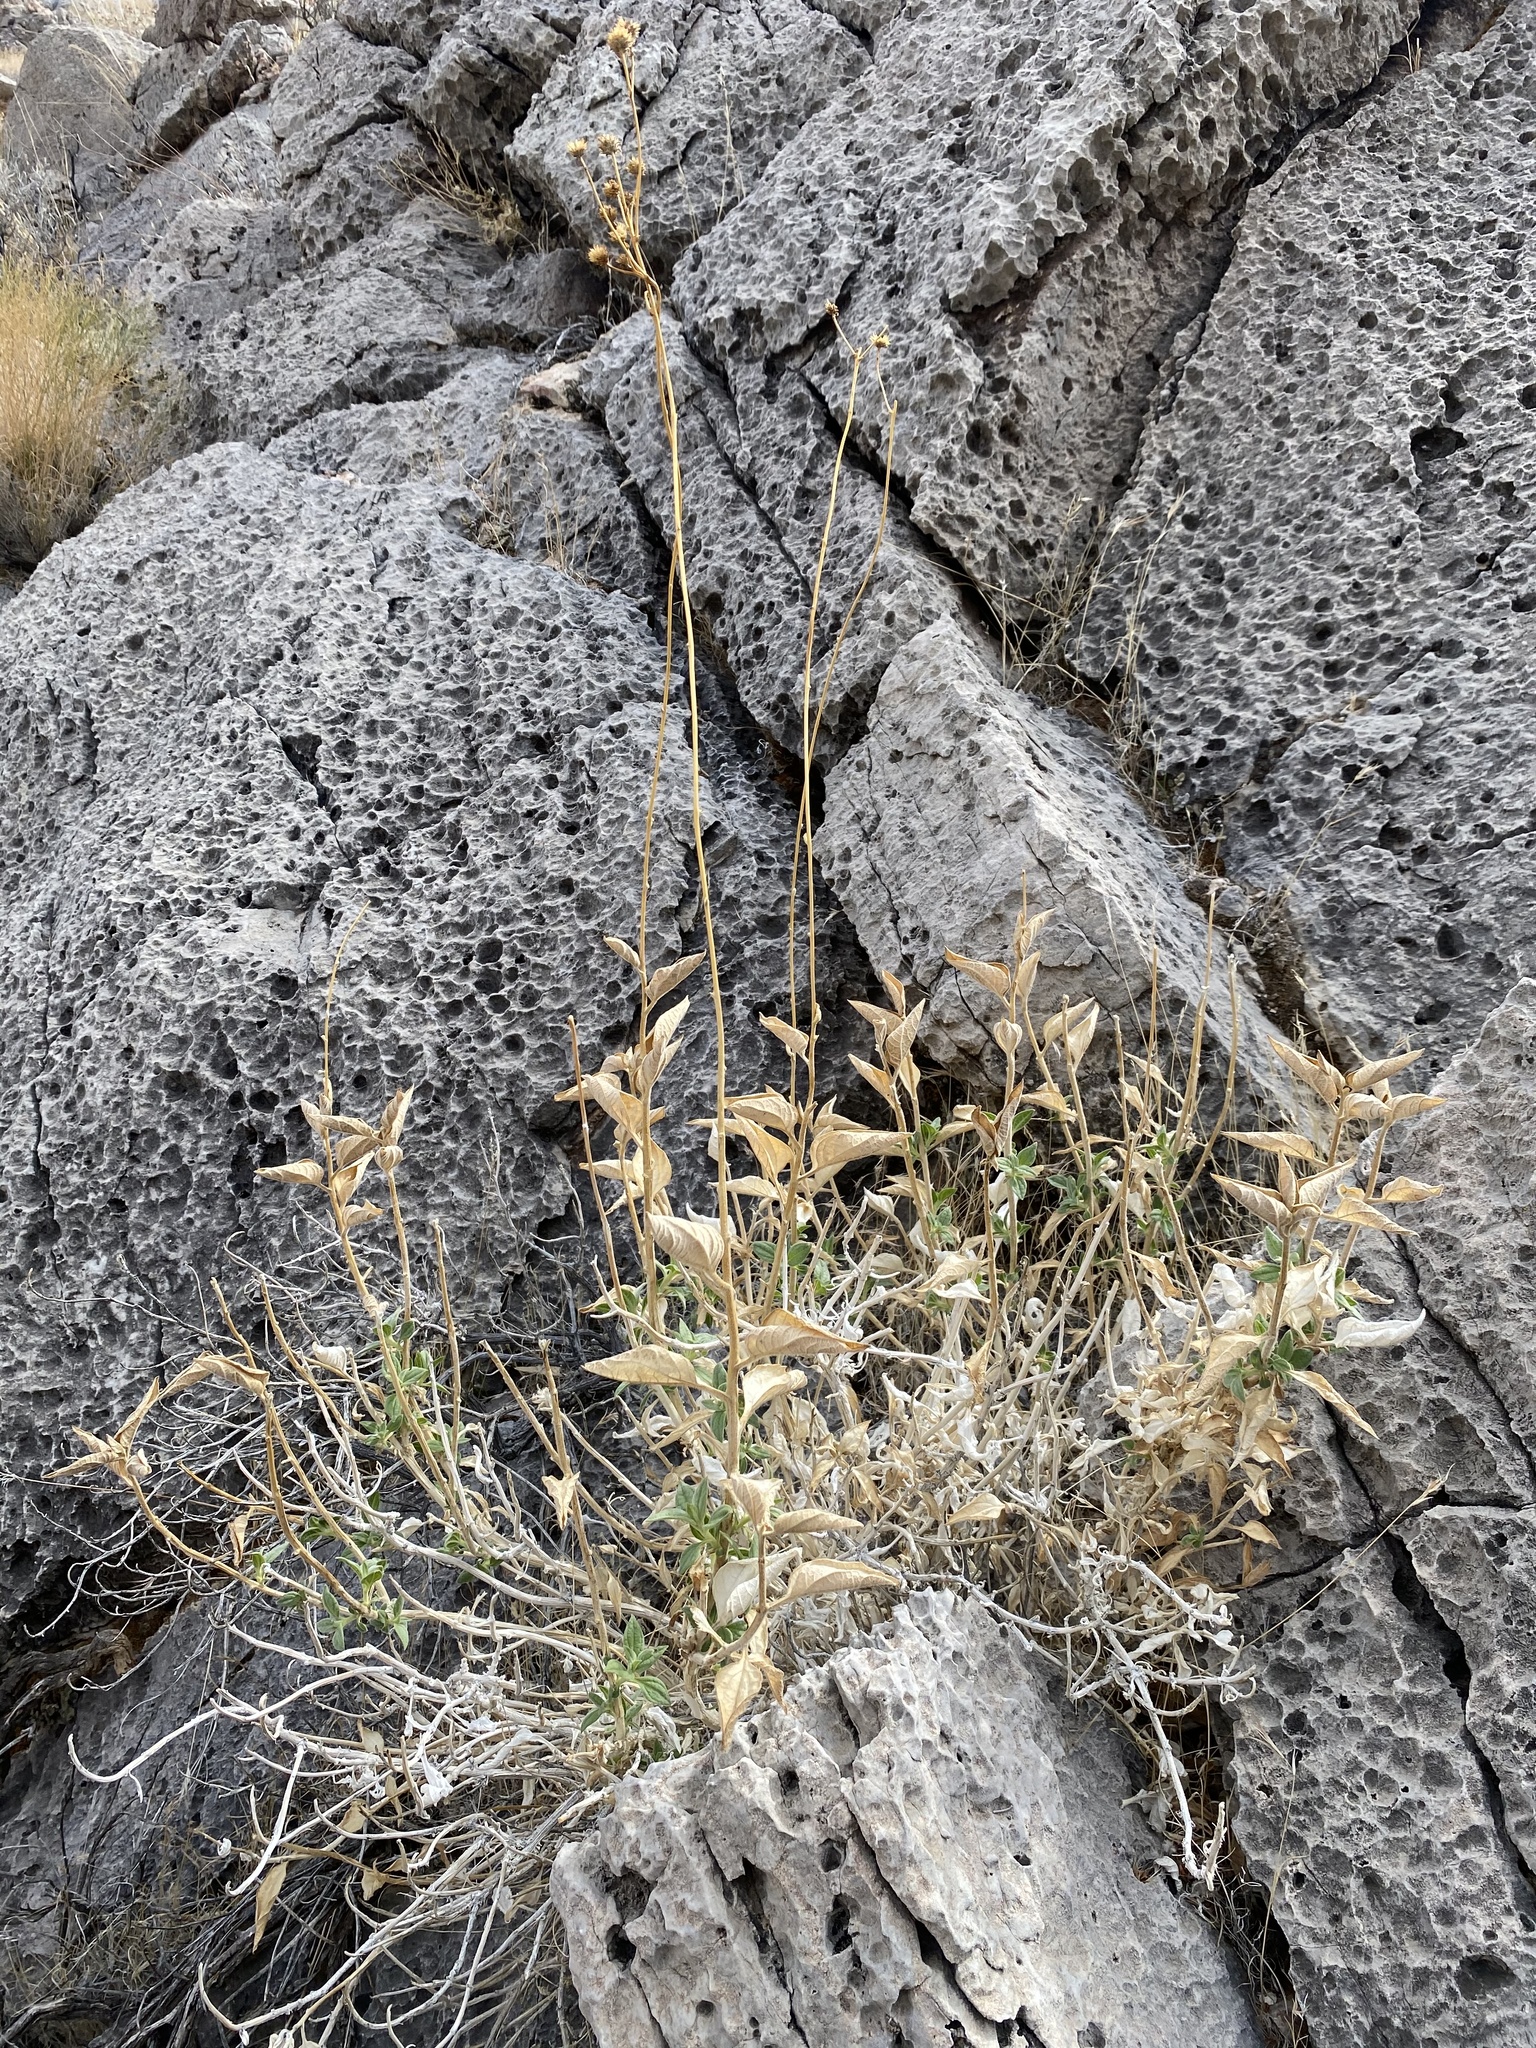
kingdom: Plantae
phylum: Tracheophyta
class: Magnoliopsida
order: Asterales
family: Asteraceae
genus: Bahiopsis
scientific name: Bahiopsis reticulata
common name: Death valley goldeneye
